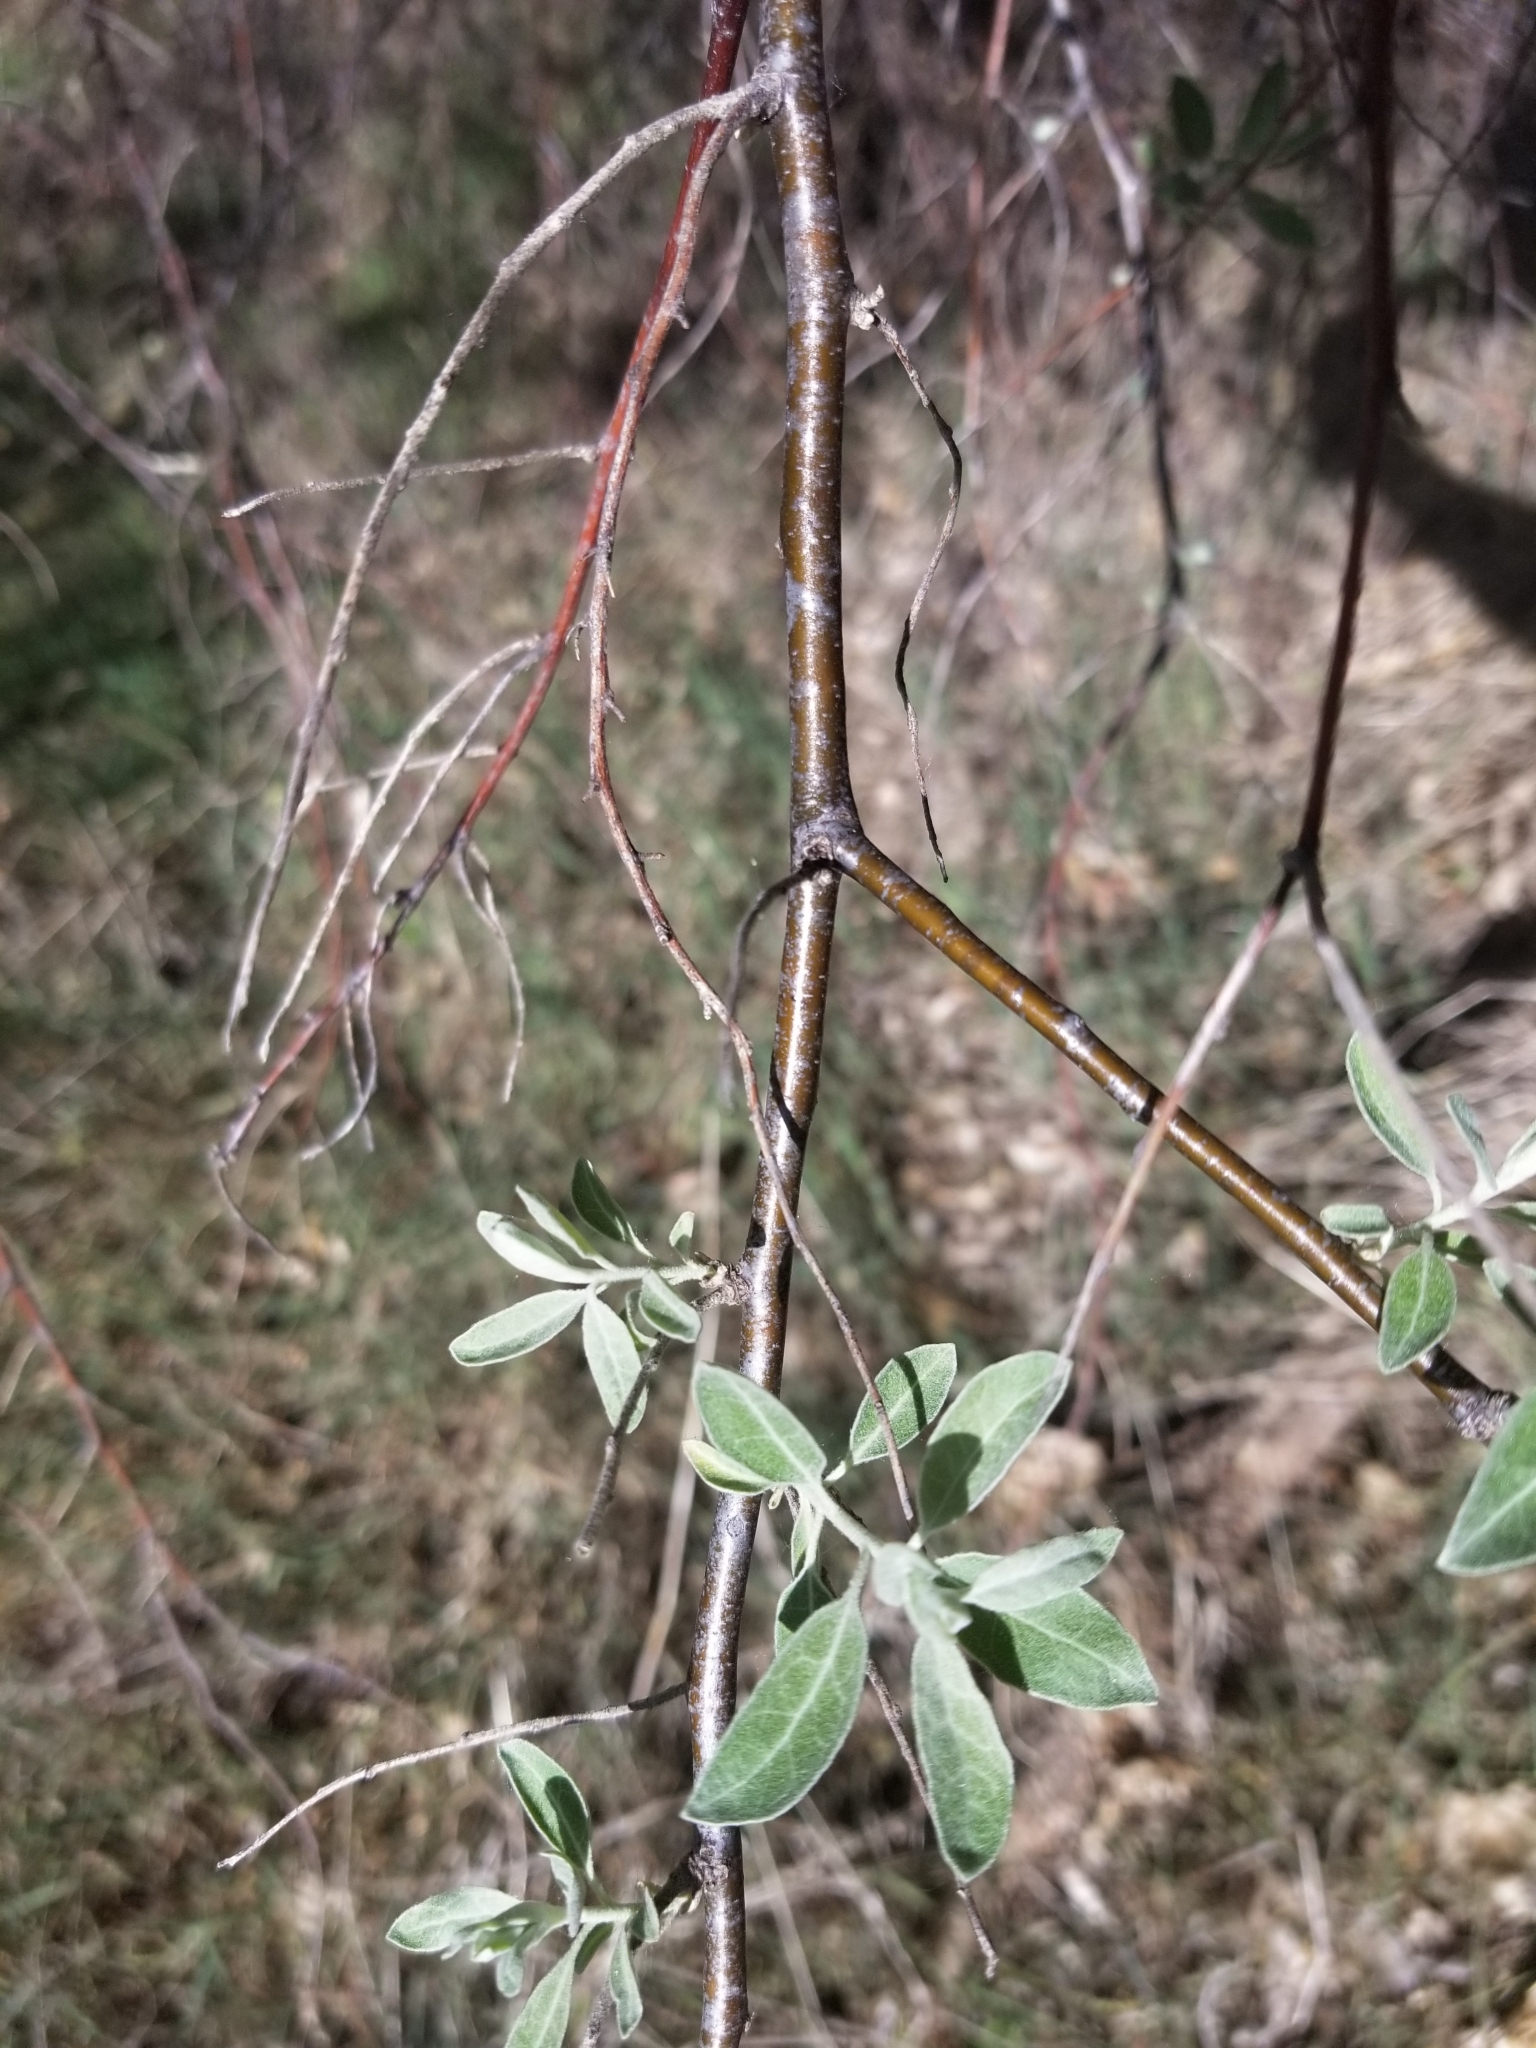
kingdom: Plantae
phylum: Tracheophyta
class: Magnoliopsida
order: Rosales
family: Elaeagnaceae
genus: Elaeagnus
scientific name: Elaeagnus angustifolia
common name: Russian olive
